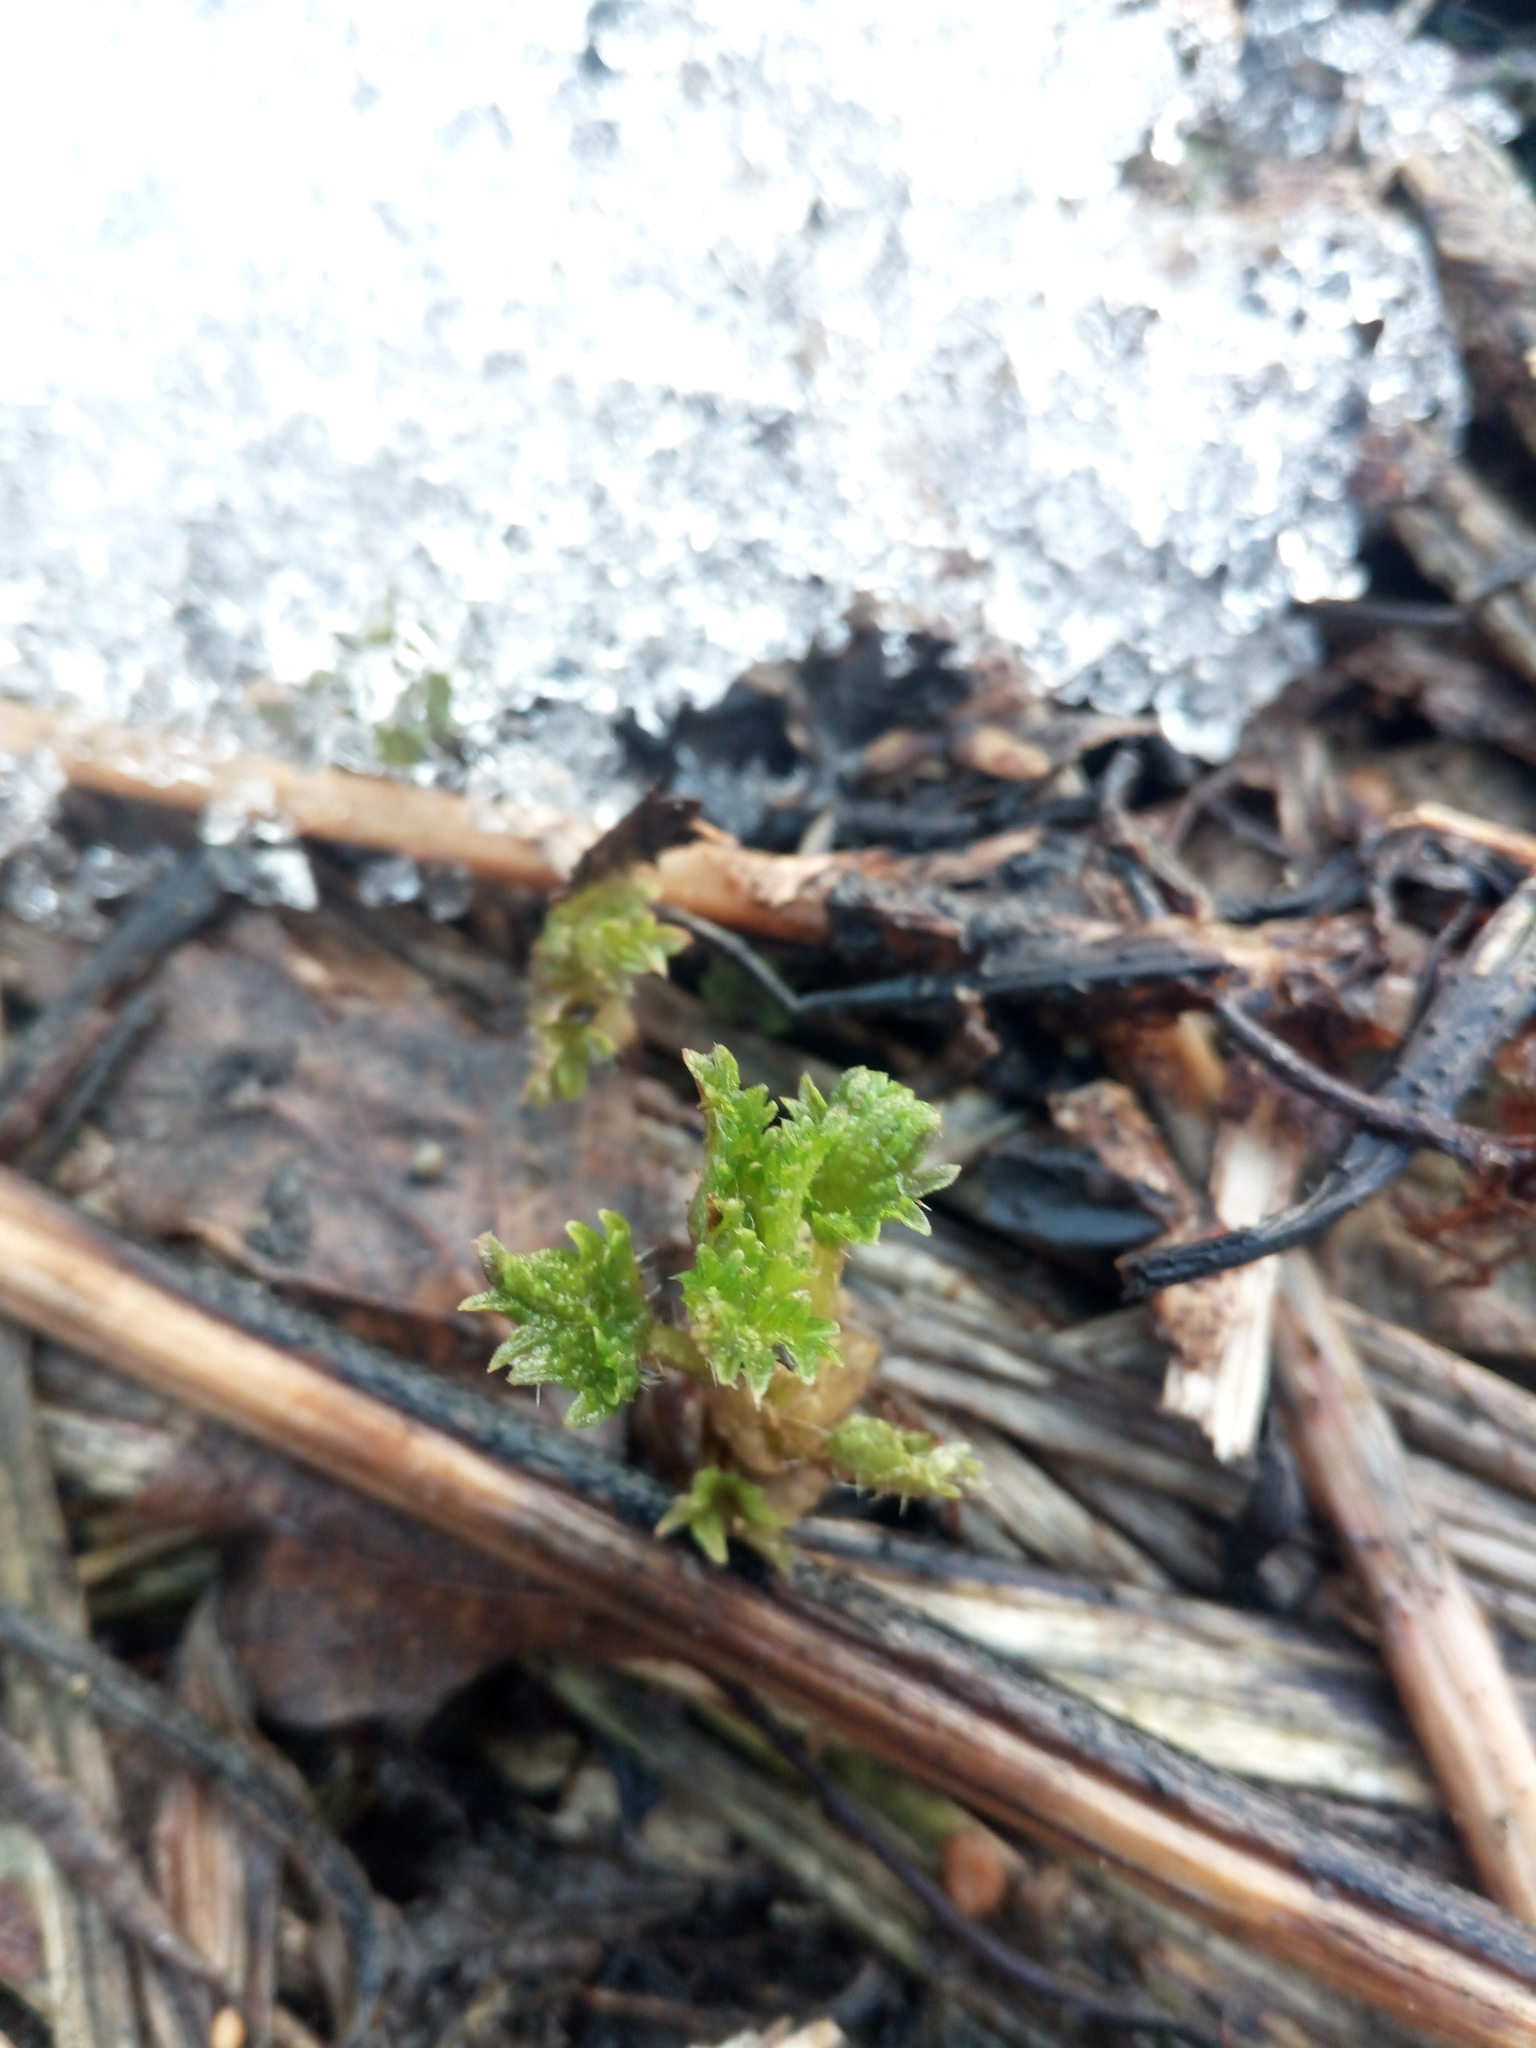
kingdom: Plantae
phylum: Tracheophyta
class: Magnoliopsida
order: Rosales
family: Urticaceae
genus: Urtica
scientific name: Urtica dioica
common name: Common nettle
